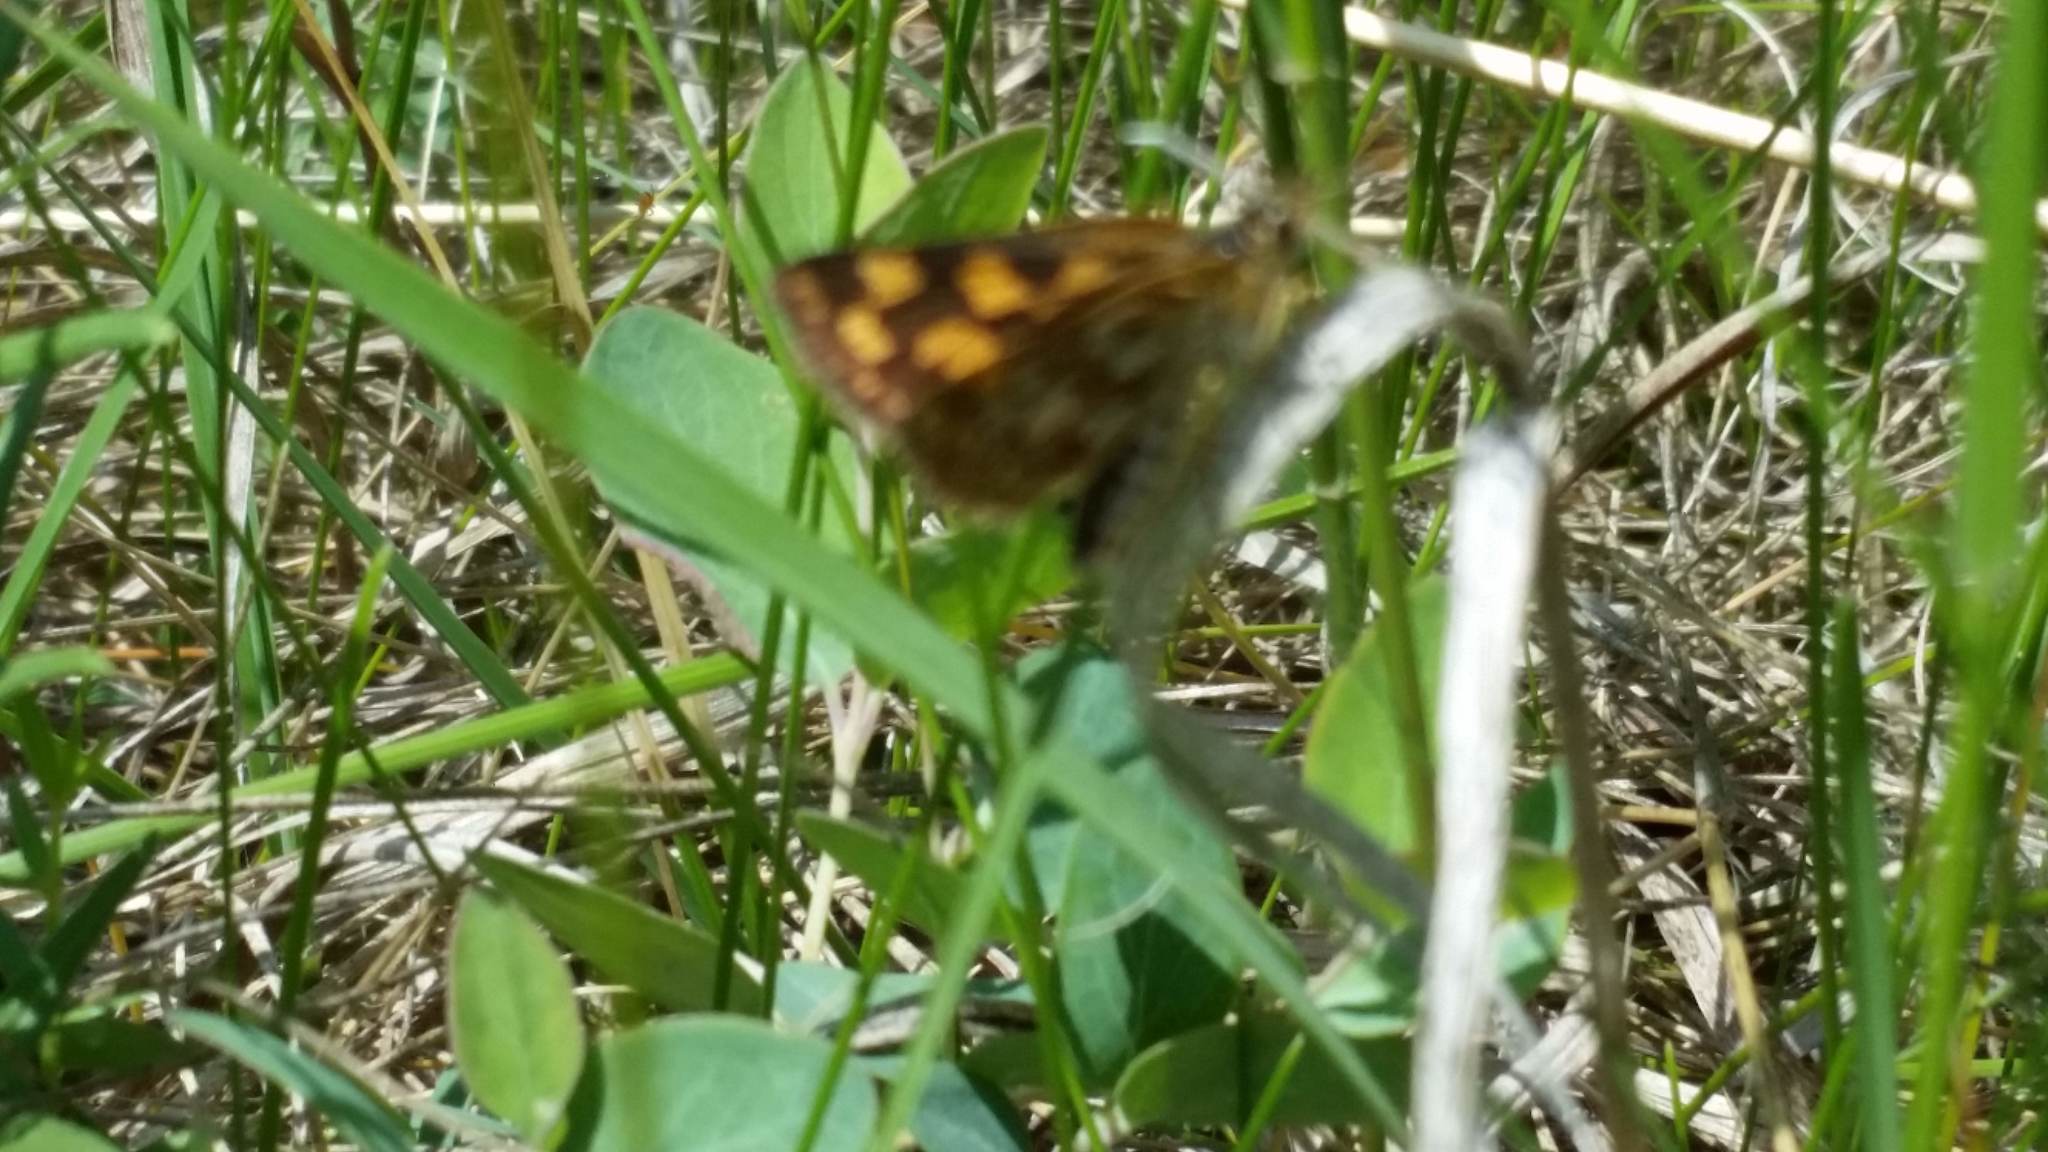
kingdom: Animalia
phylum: Arthropoda
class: Insecta
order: Lepidoptera
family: Hesperiidae
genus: Carterocephalus
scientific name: Carterocephalus mandan
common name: Arctic skipperling
